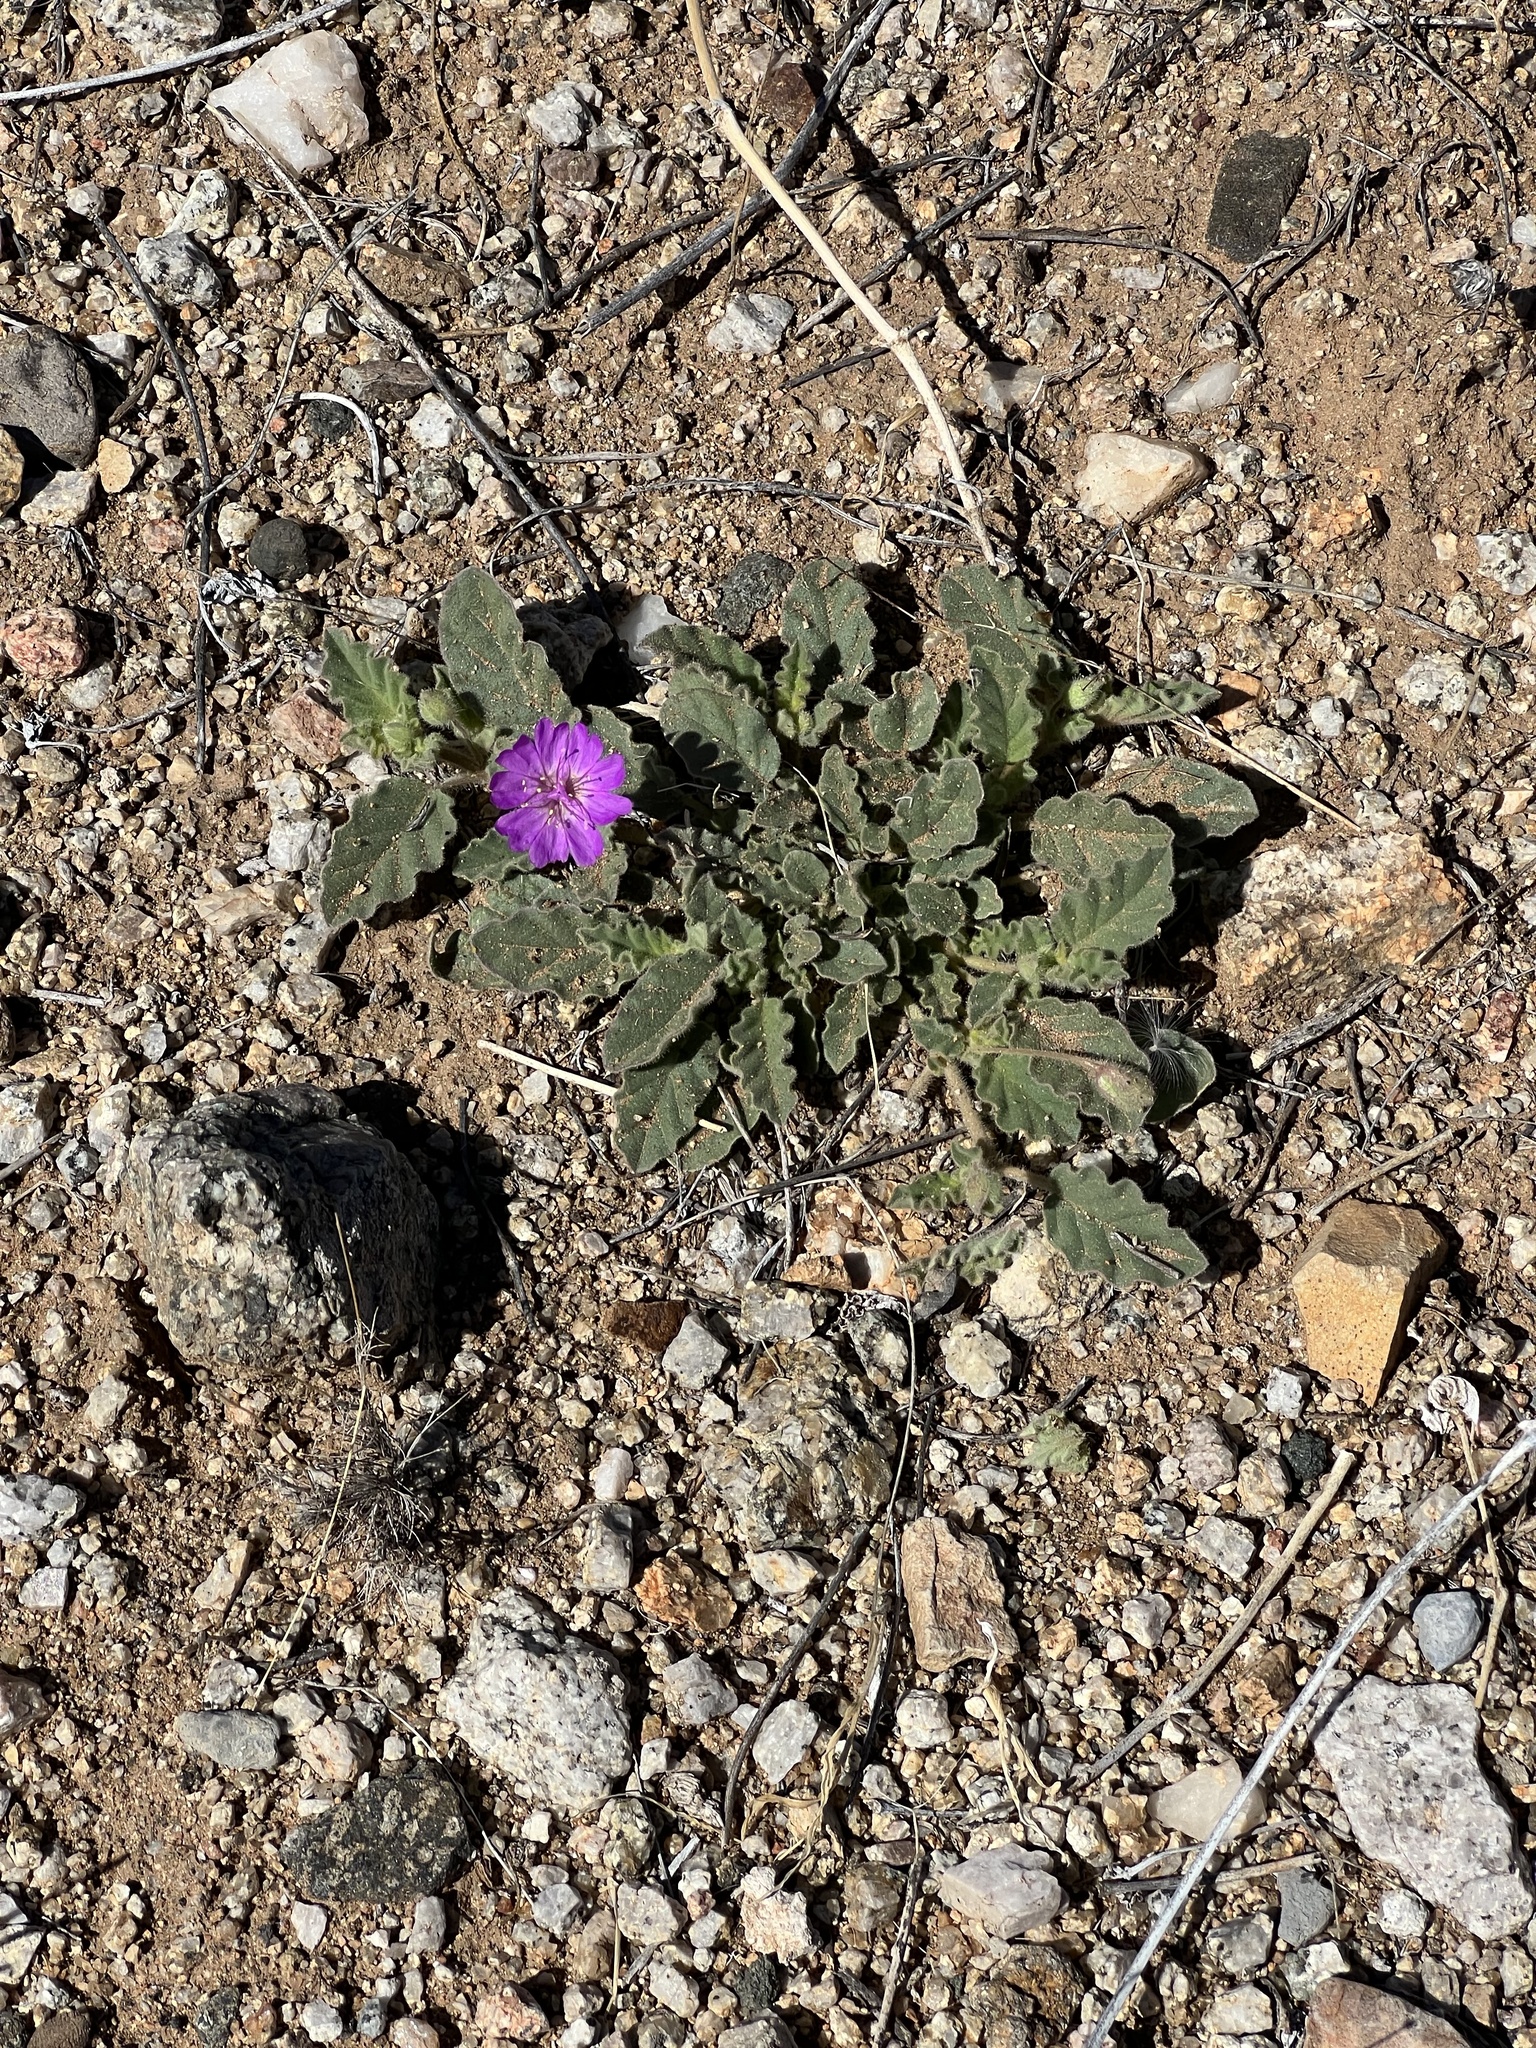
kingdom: Plantae
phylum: Tracheophyta
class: Magnoliopsida
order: Caryophyllales
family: Nyctaginaceae
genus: Allionia
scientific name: Allionia incarnata
